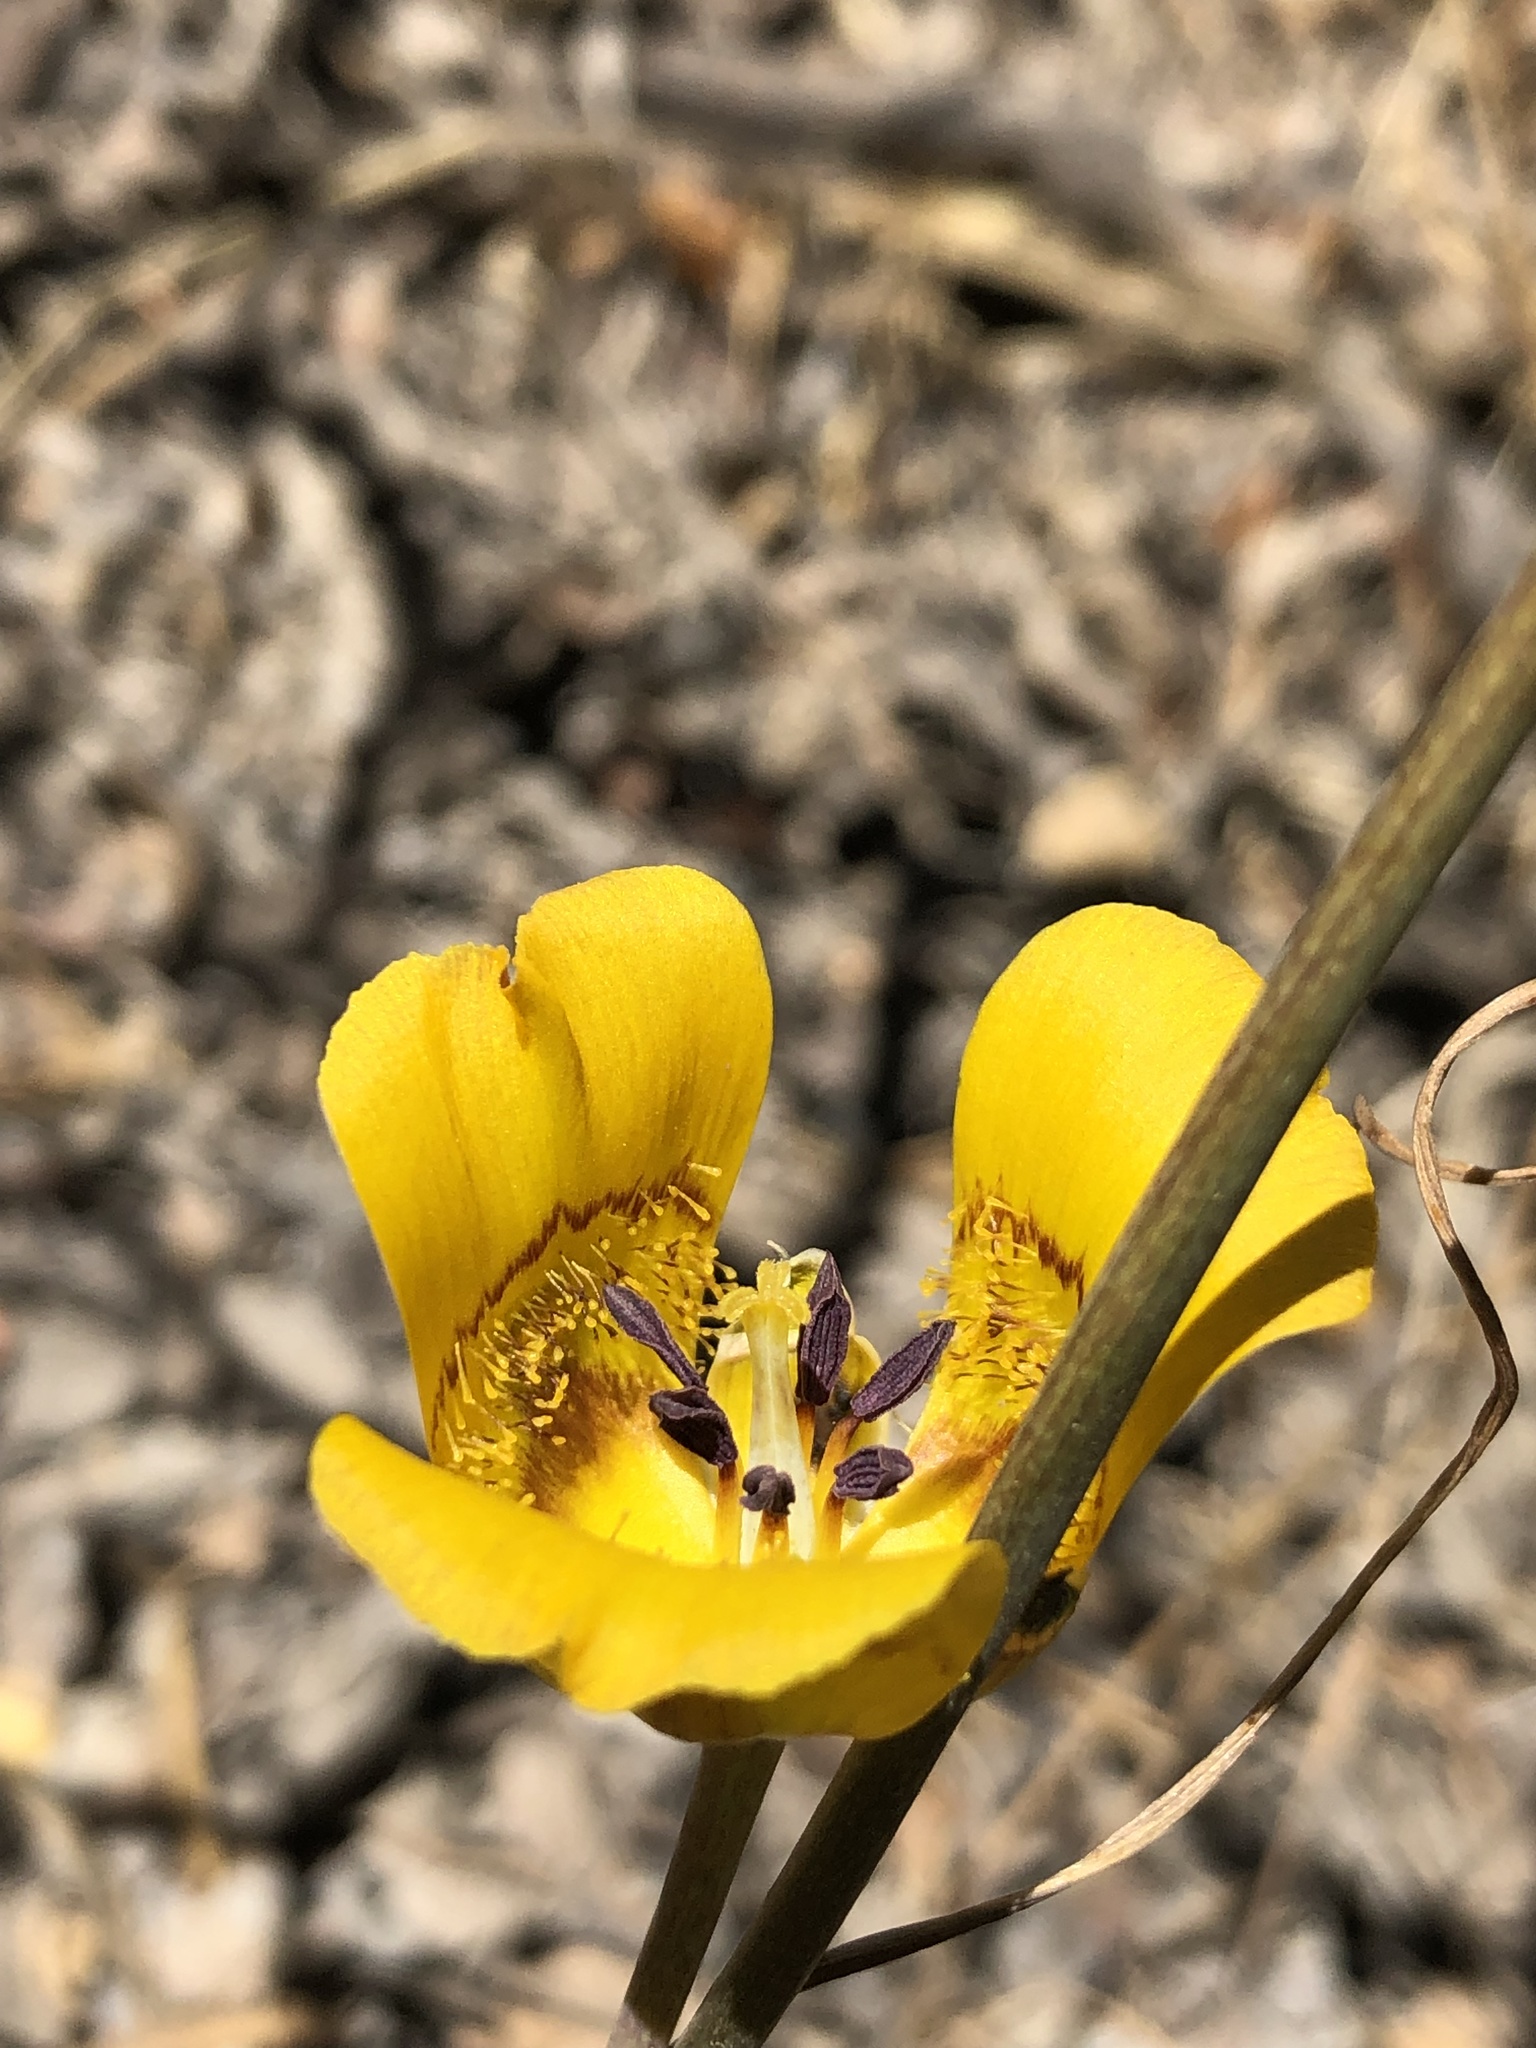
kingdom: Plantae
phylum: Tracheophyta
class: Liliopsida
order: Liliales
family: Liliaceae
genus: Calochortus
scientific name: Calochortus clavatus
